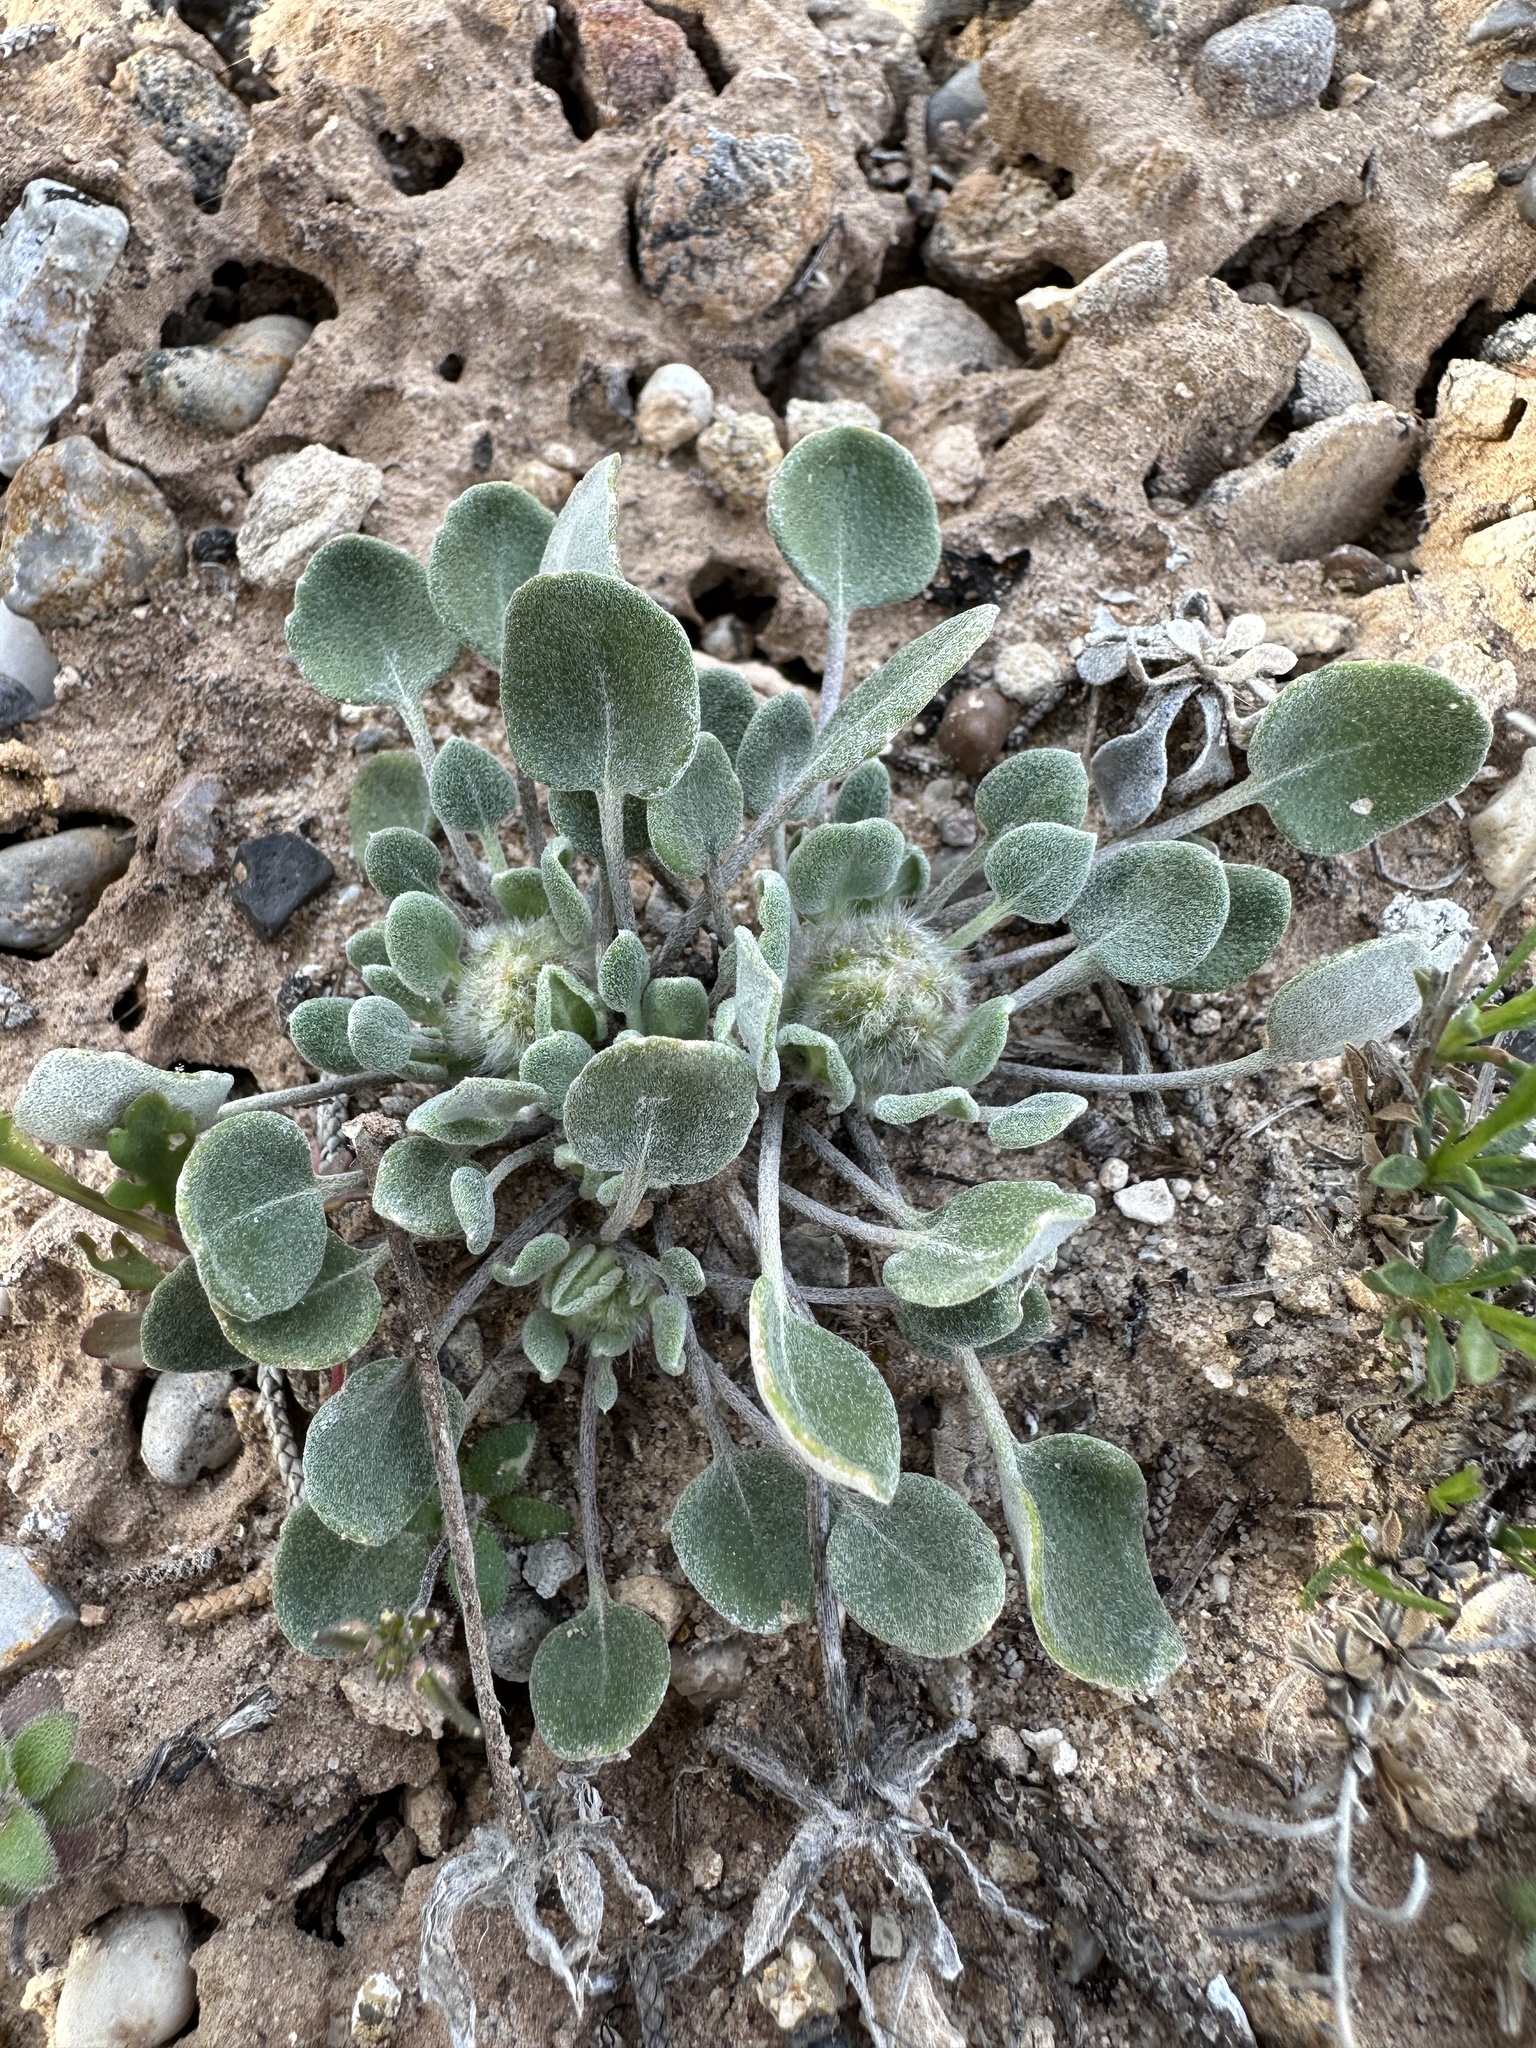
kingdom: Plantae
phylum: Tracheophyta
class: Magnoliopsida
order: Asterales
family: Asteraceae
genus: Chamaechaenactis
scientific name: Chamaechaenactis scaposa
